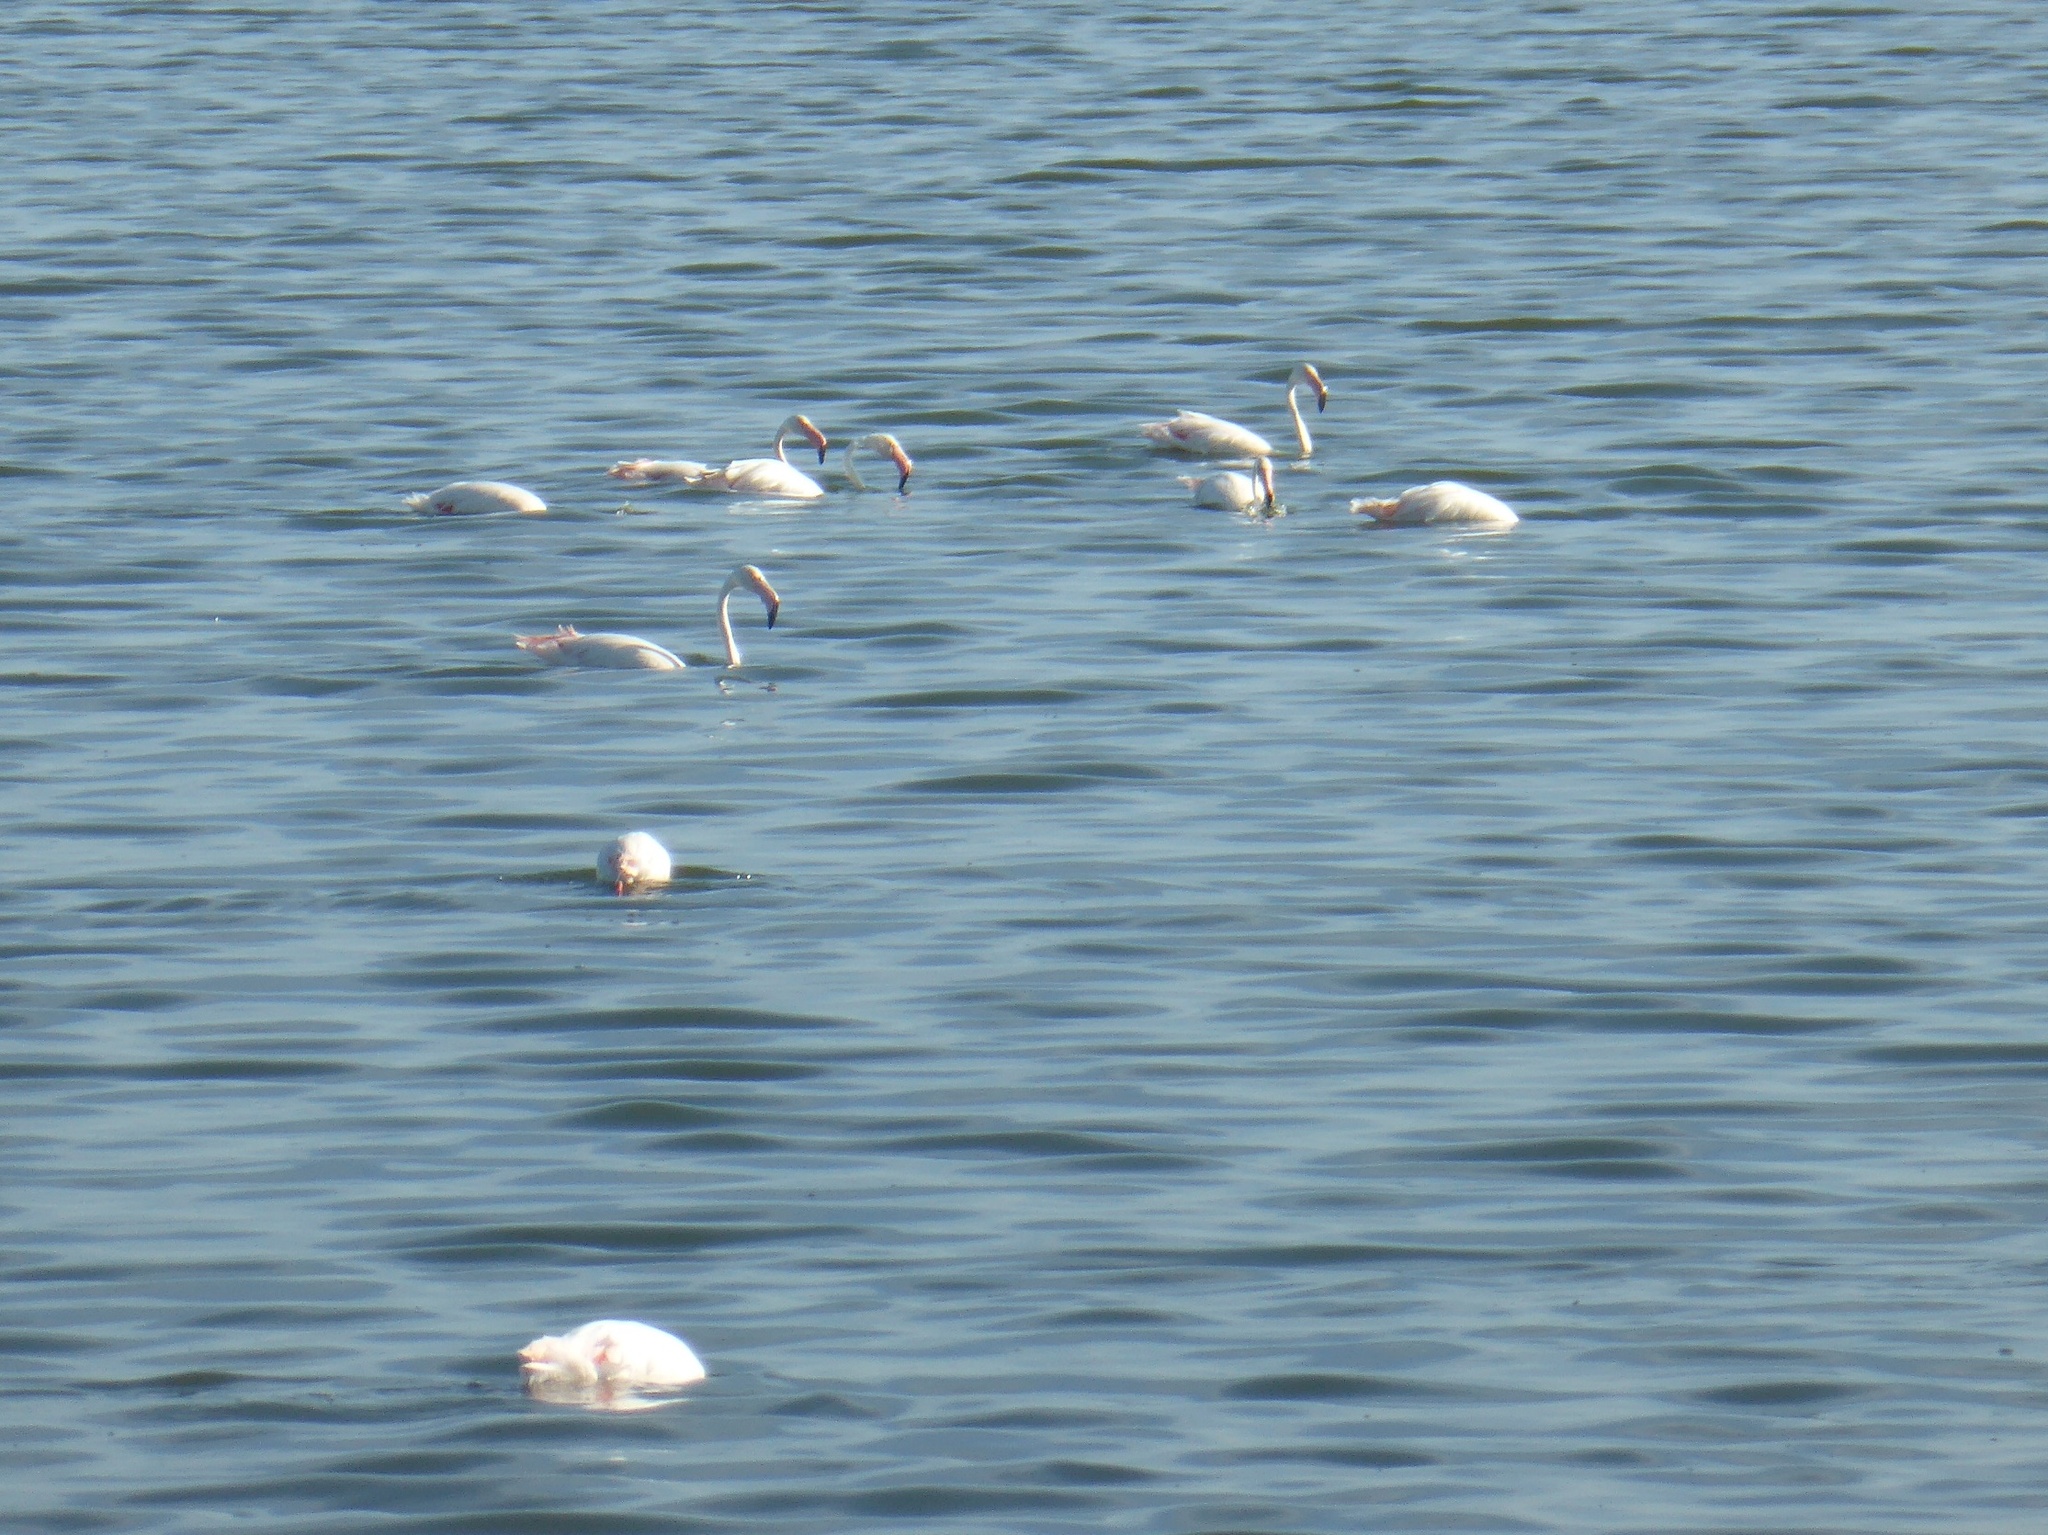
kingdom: Animalia
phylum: Chordata
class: Aves
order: Phoenicopteriformes
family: Phoenicopteridae
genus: Phoenicopterus
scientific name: Phoenicopterus roseus
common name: Greater flamingo
